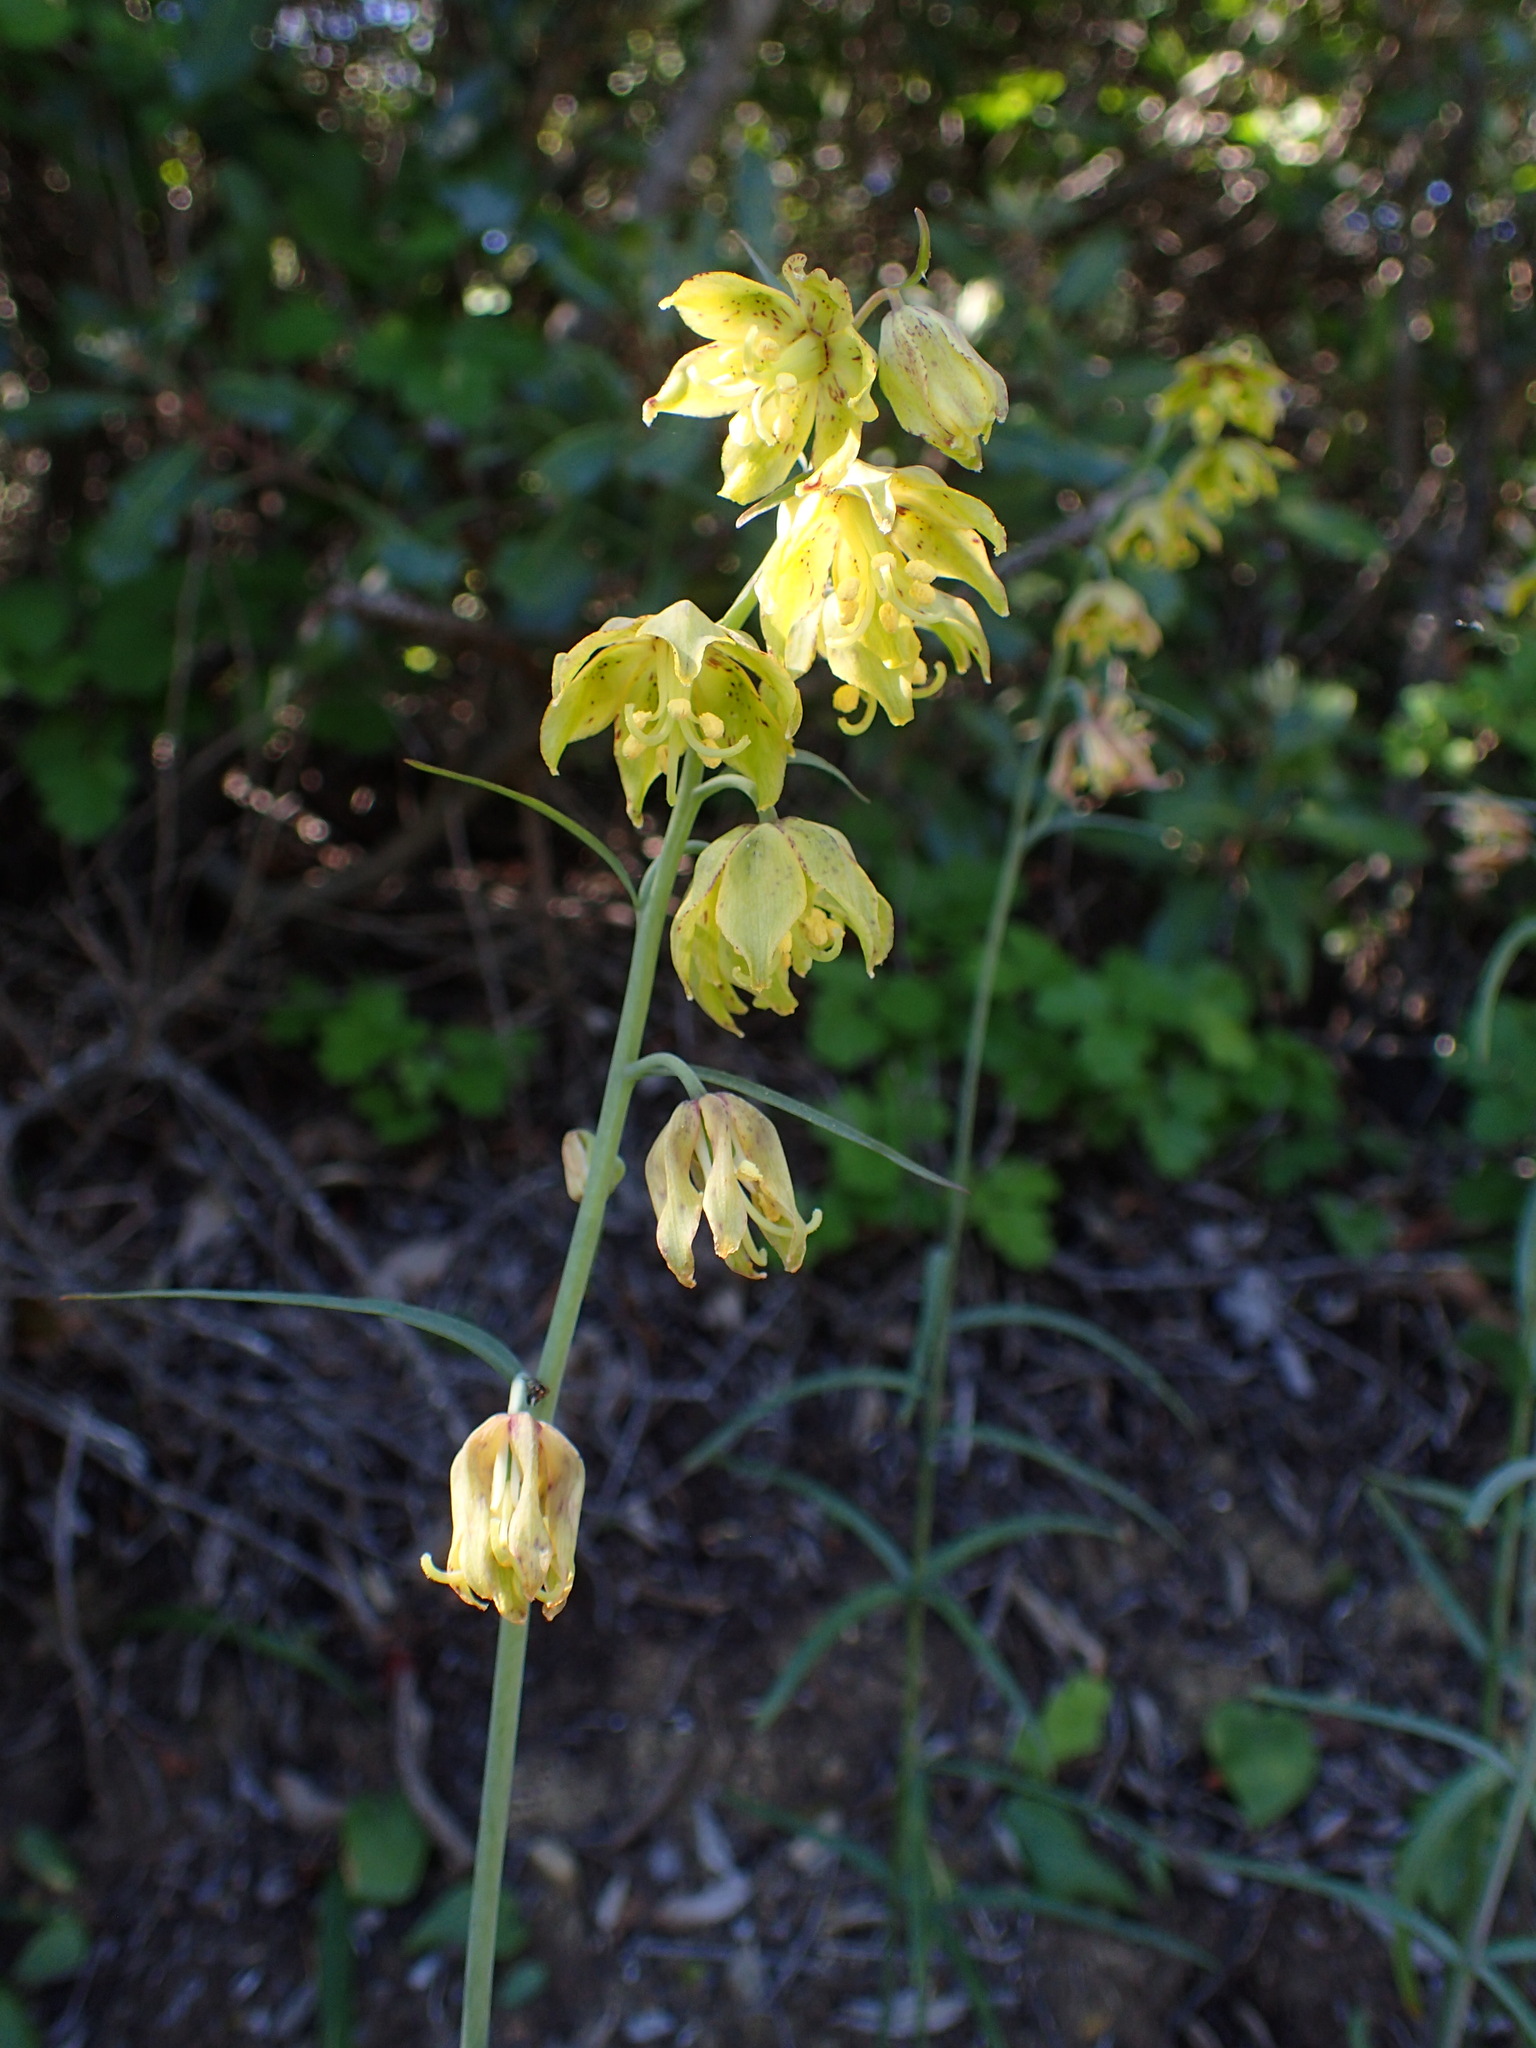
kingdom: Plantae
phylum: Tracheophyta
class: Liliopsida
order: Liliales
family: Liliaceae
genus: Fritillaria
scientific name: Fritillaria ojaiensis
